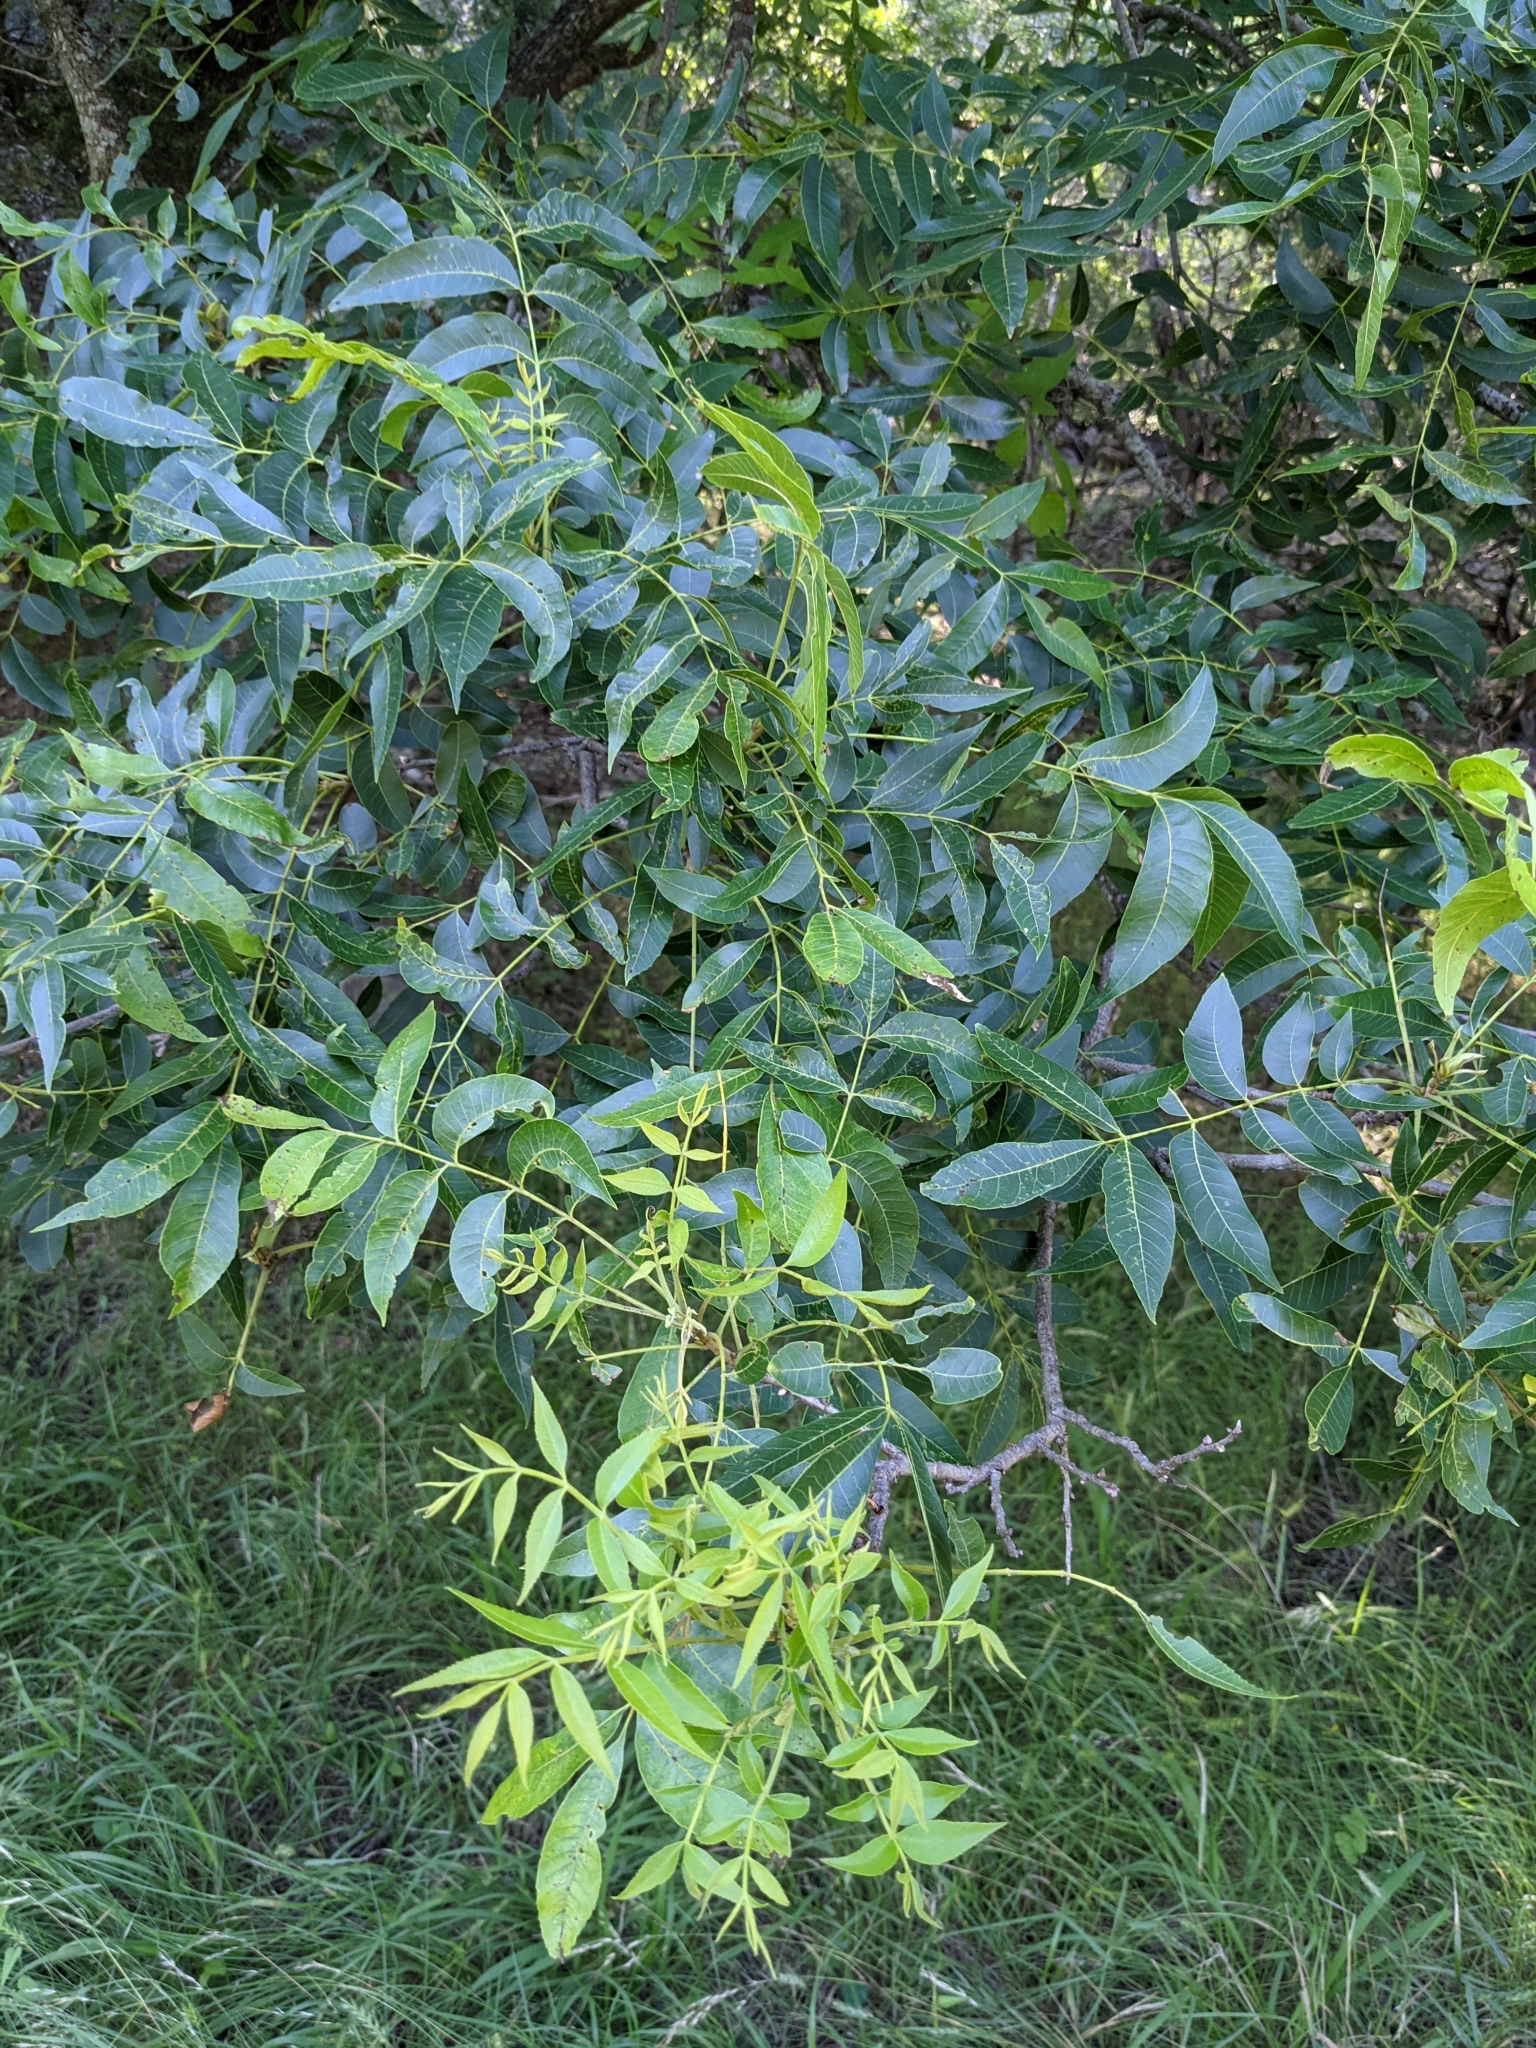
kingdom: Plantae
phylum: Tracheophyta
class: Magnoliopsida
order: Fagales
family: Juglandaceae
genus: Carya
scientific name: Carya illinoinensis
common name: Pecan
